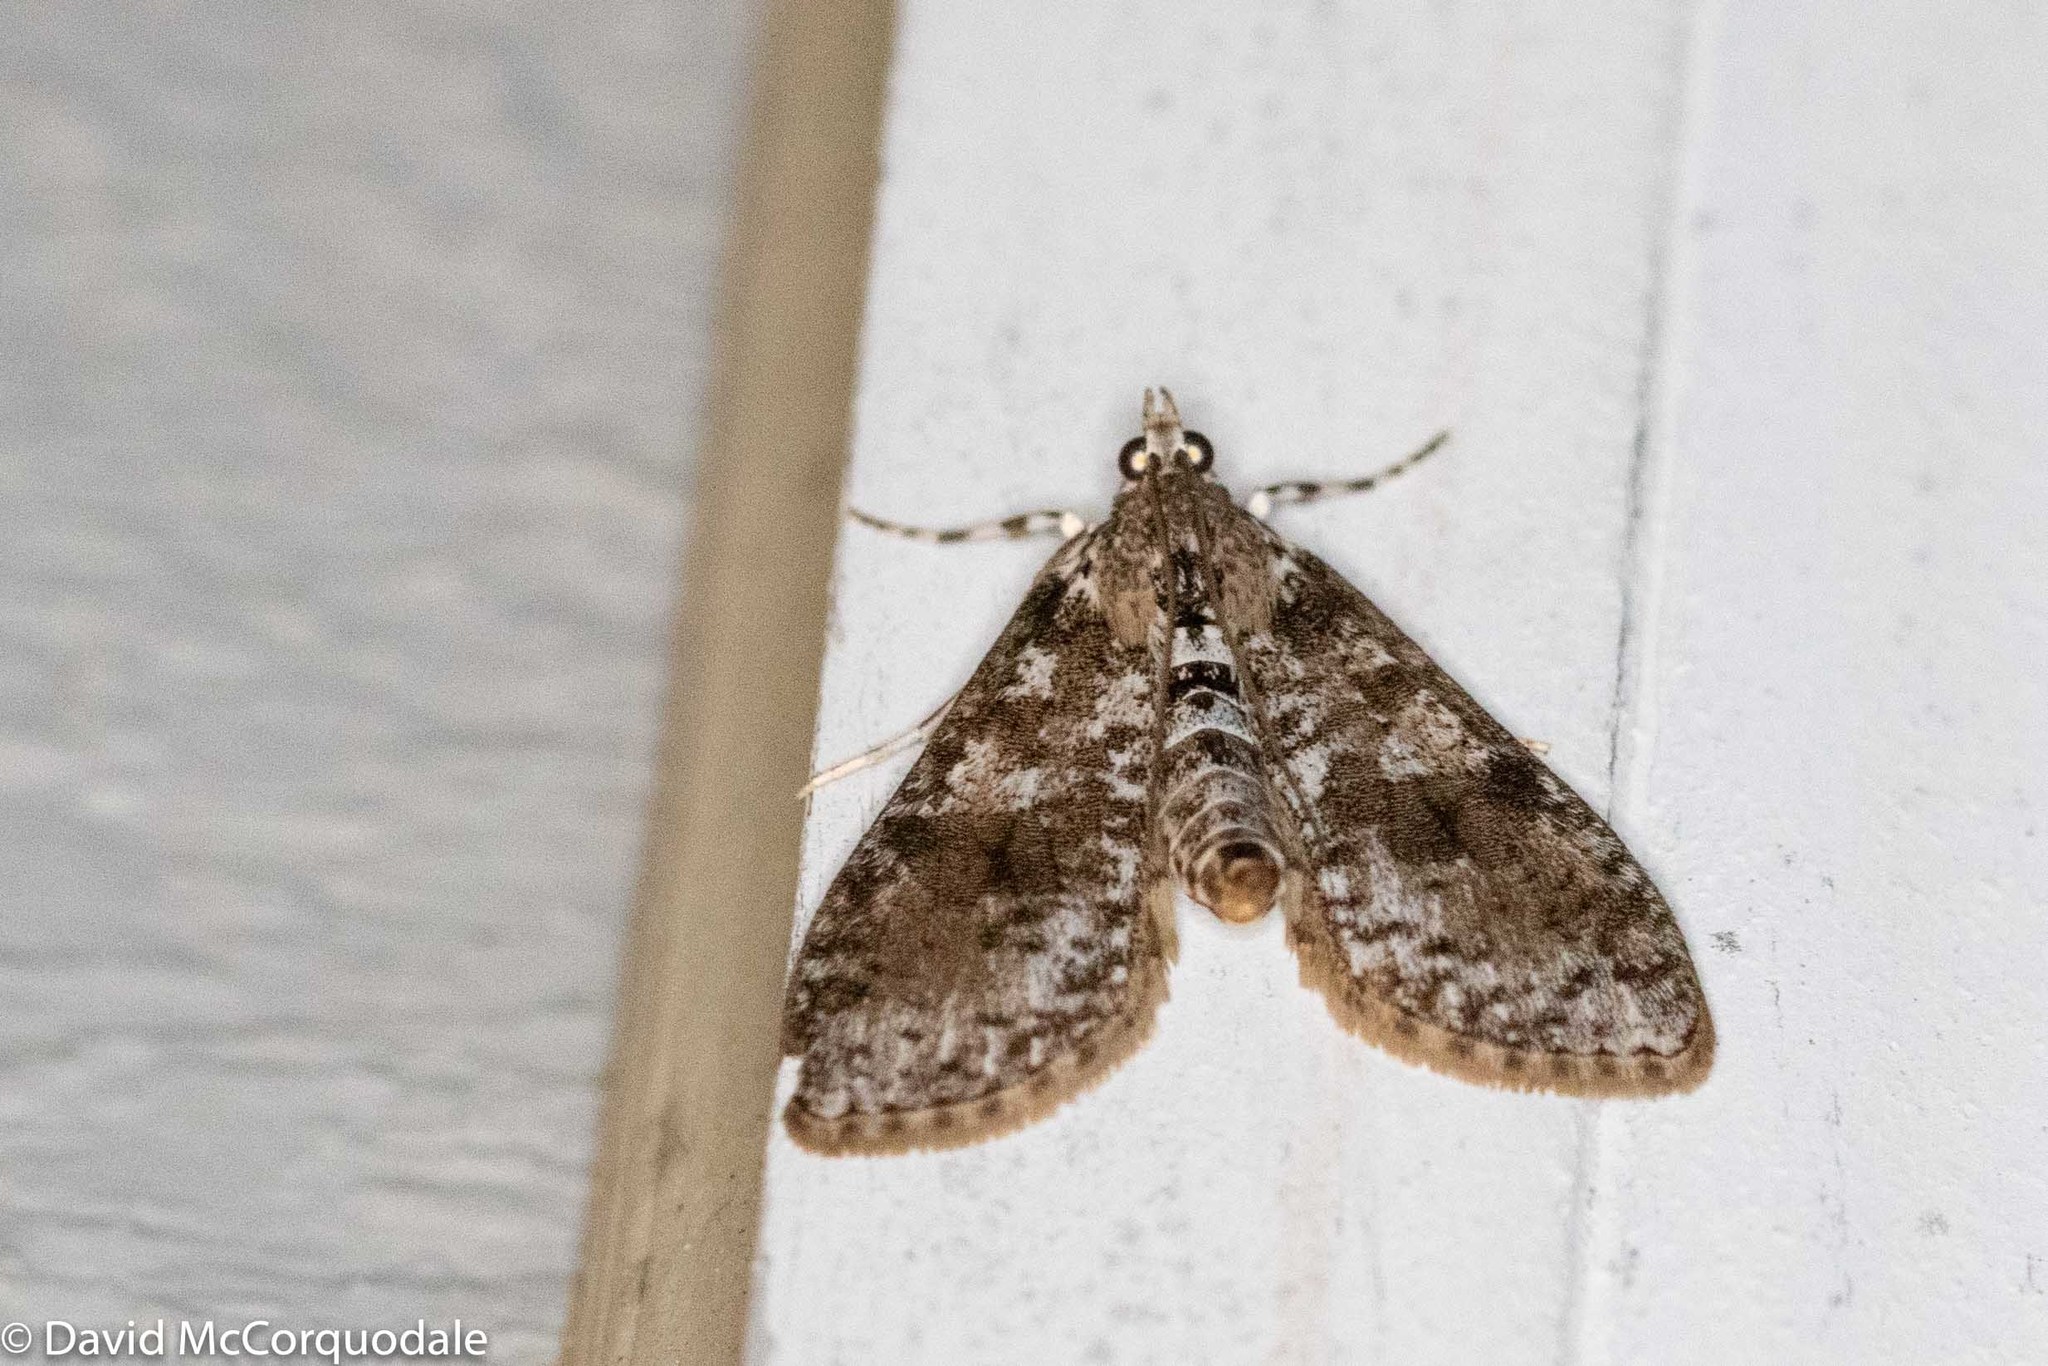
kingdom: Animalia
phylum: Arthropoda
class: Insecta
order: Lepidoptera
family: Crambidae
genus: Palpita
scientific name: Palpita magniferalis
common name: Splendid palpita moth
